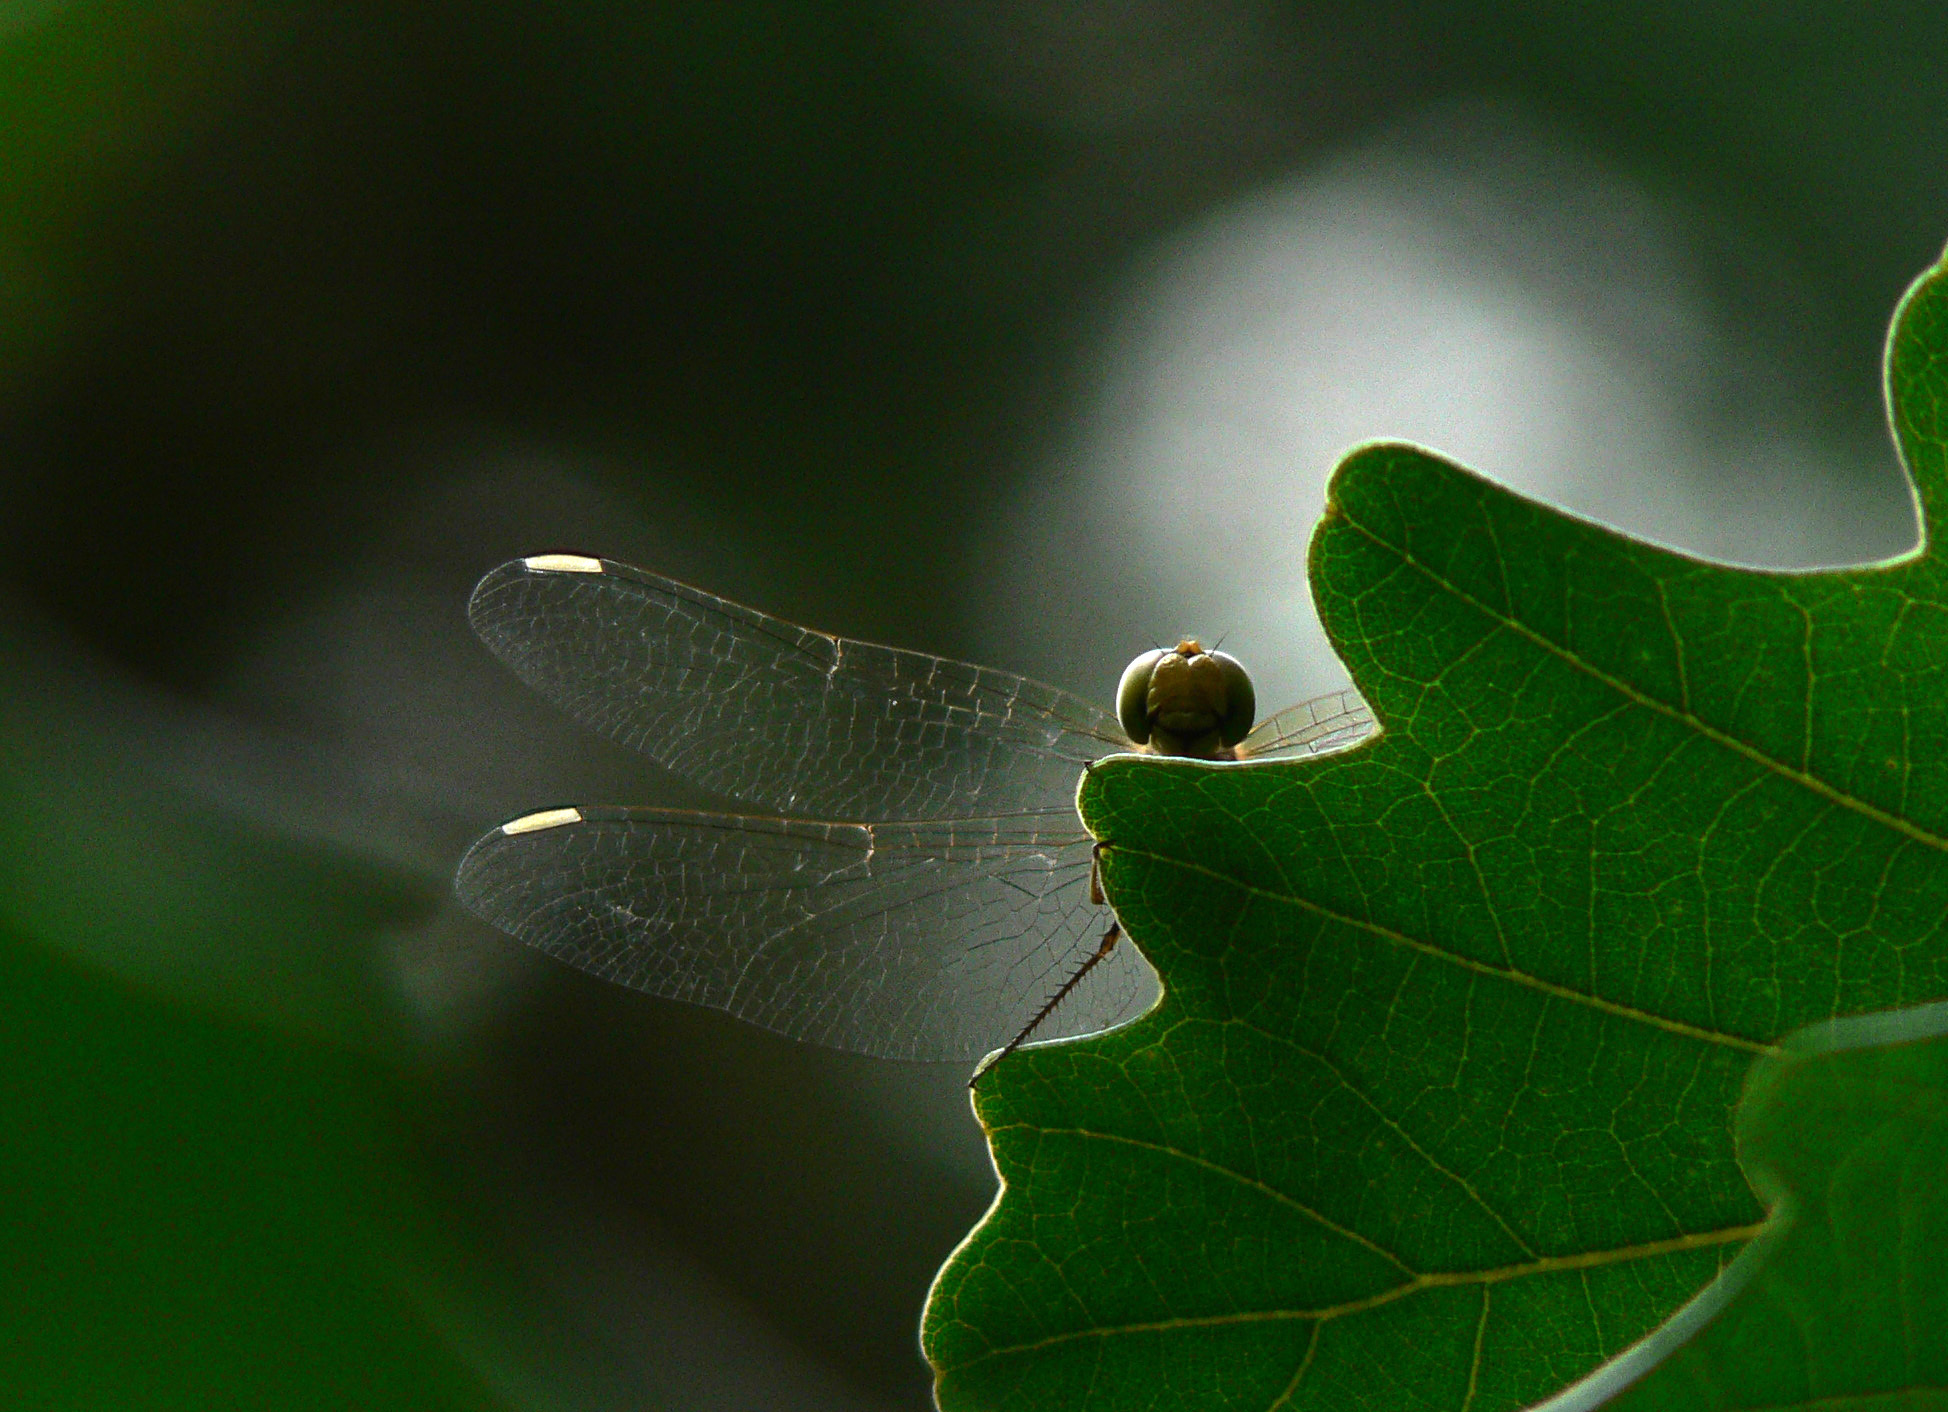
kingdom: Animalia
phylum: Arthropoda
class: Insecta
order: Odonata
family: Libellulidae
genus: Sympetrum
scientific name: Sympetrum meridionale
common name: Southern darter
